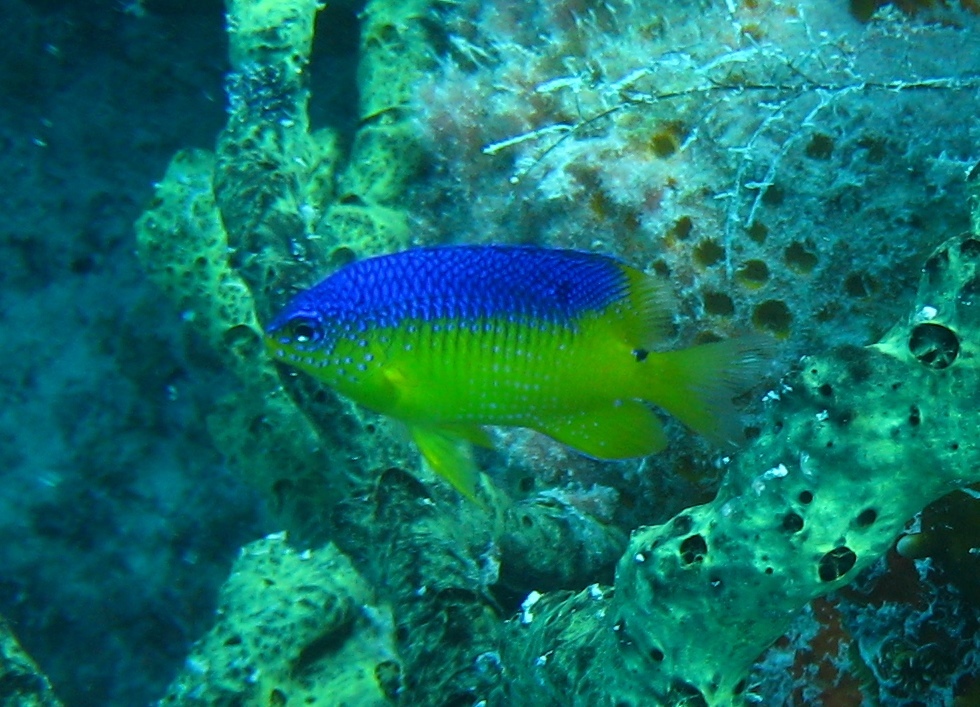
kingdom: Animalia
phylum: Chordata
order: Perciformes
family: Pomacentridae
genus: Stegastes
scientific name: Stegastes xanthurus
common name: Cocoa damselfish
